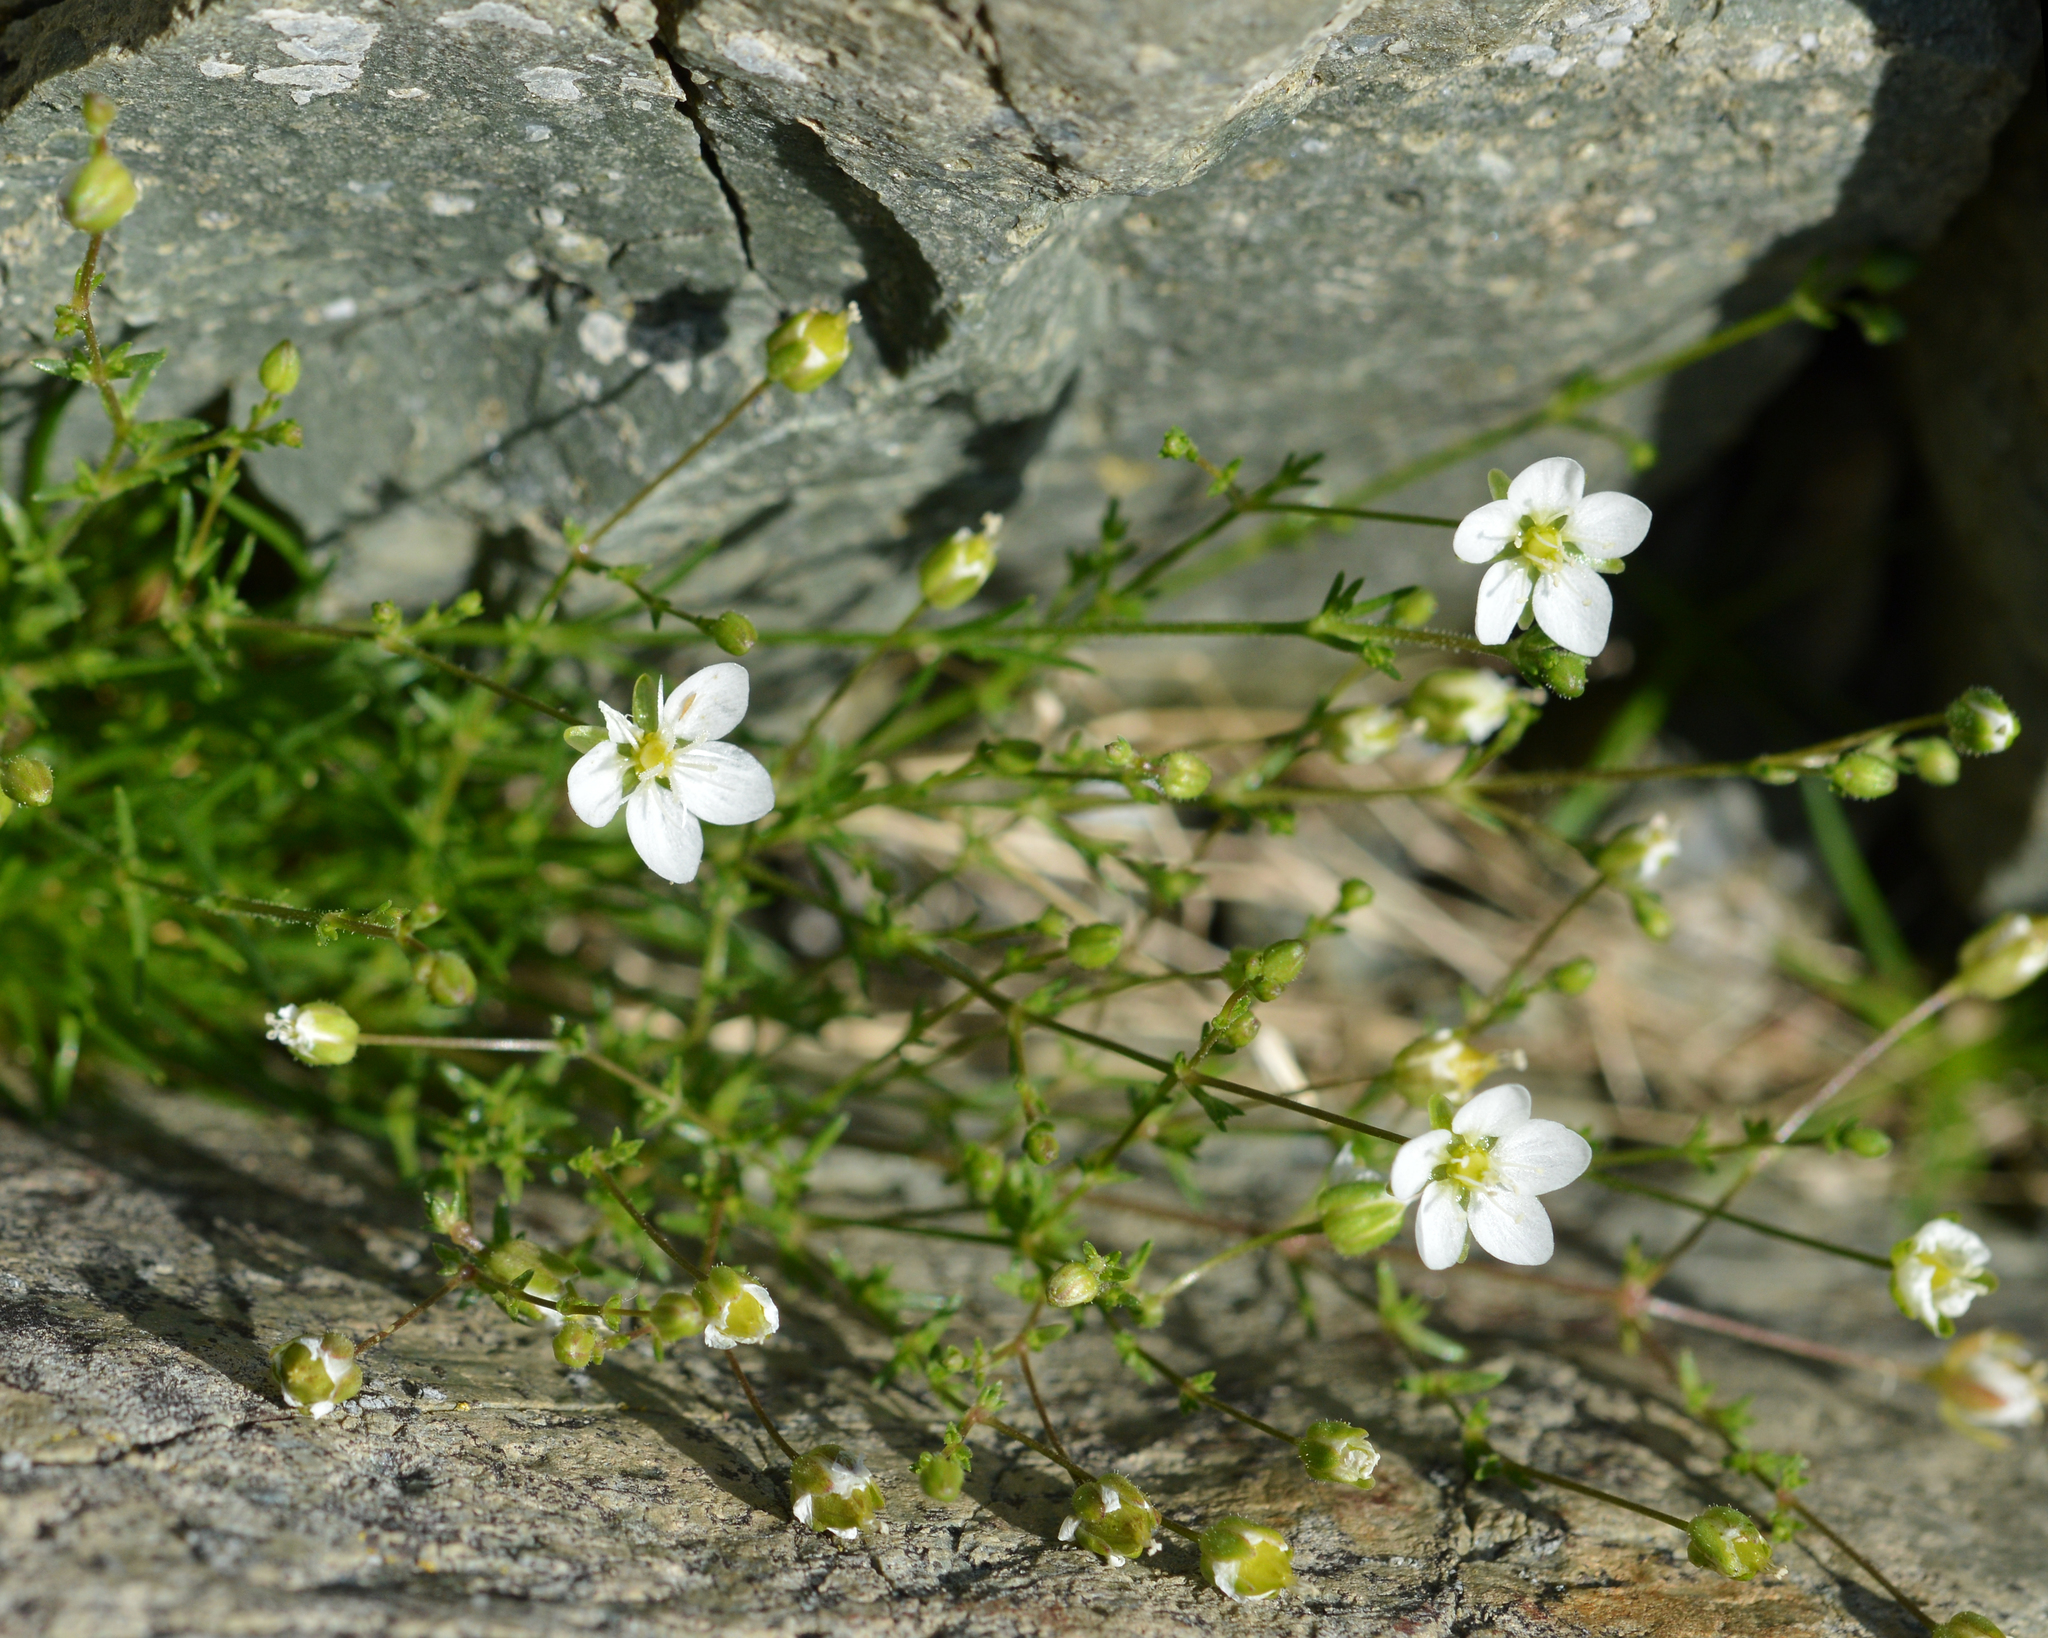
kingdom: Plantae
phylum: Tracheophyta
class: Magnoliopsida
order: Caryophyllales
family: Caryophyllaceae
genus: Sagina
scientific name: Sagina nodosa
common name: Knotted pearlwort
